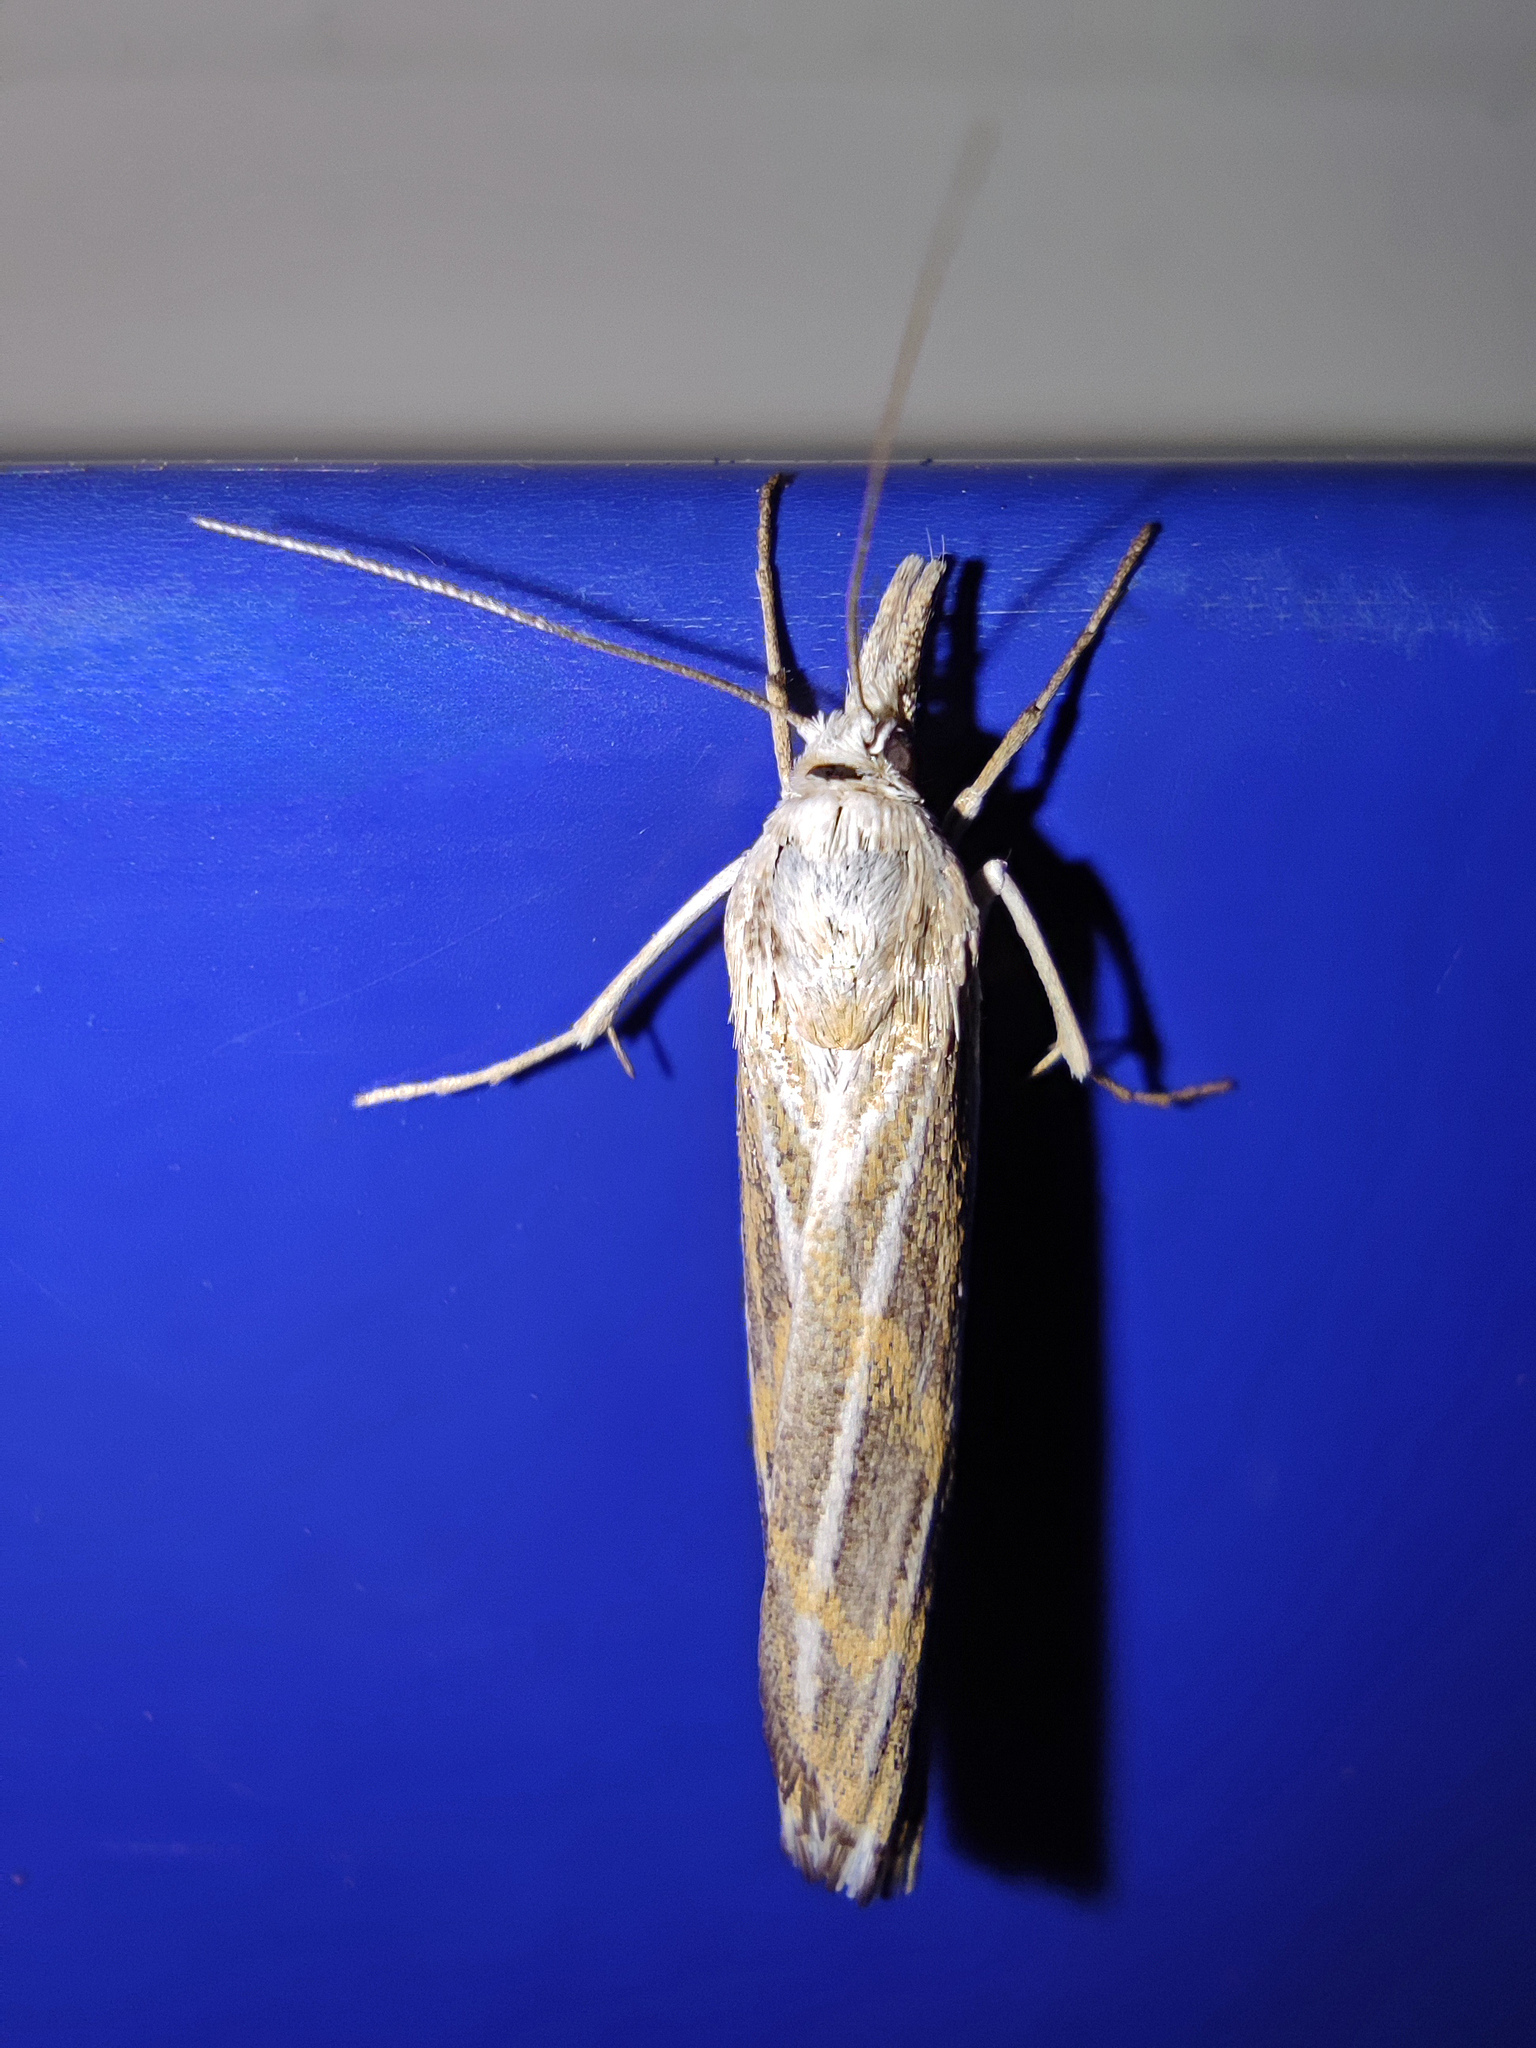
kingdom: Animalia
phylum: Arthropoda
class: Insecta
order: Lepidoptera
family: Crambidae
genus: Pediasia
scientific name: Pediasia pudibundellus
